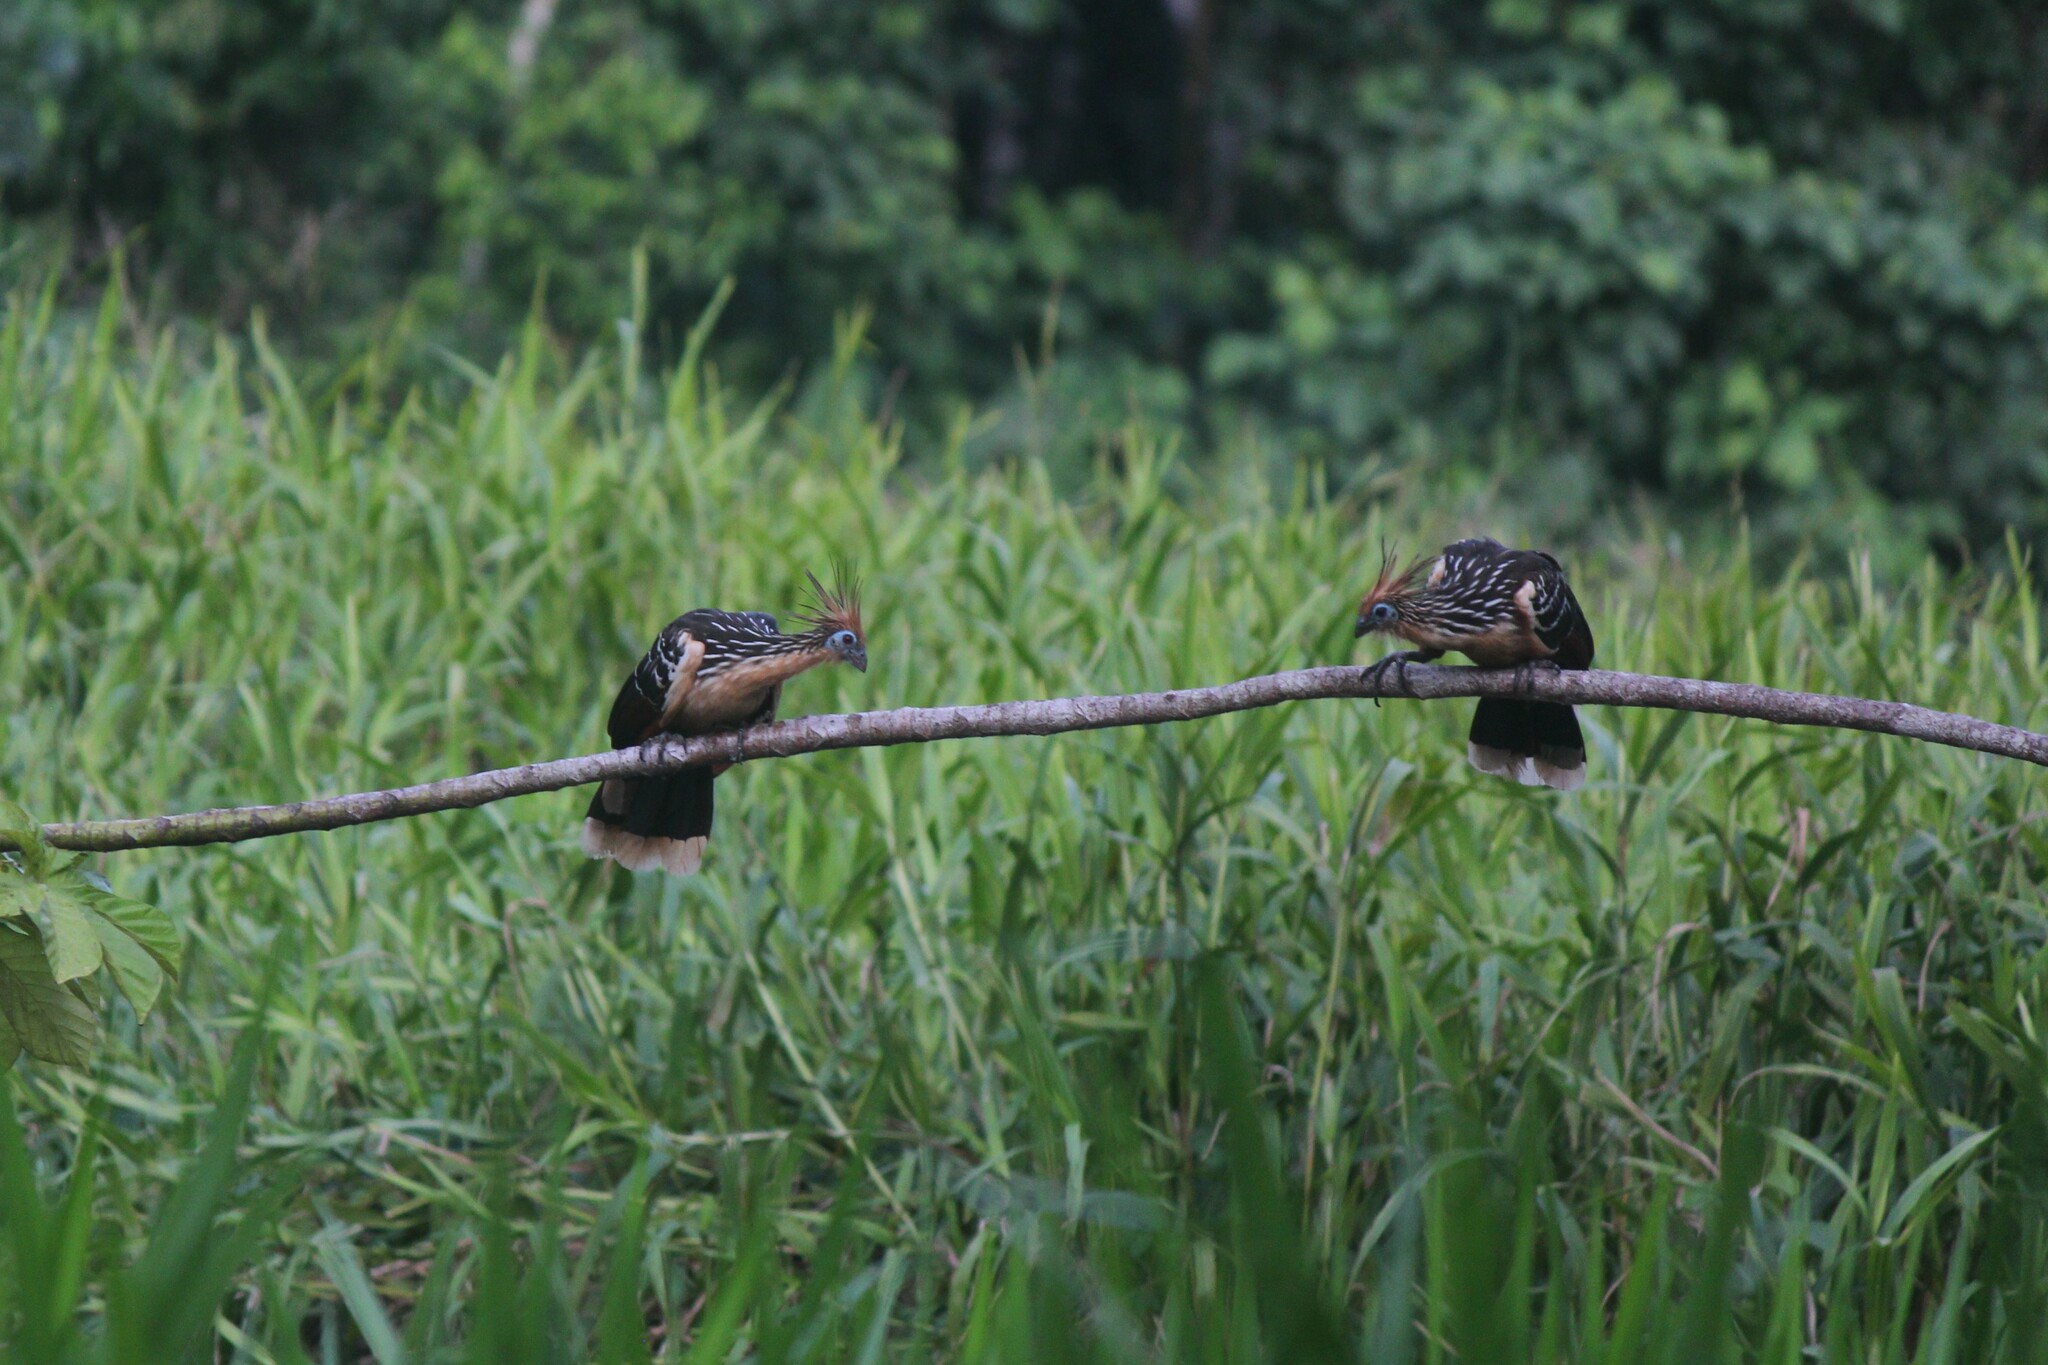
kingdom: Animalia
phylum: Chordata
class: Aves
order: Opisthocomiformes
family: Opisthocomidae
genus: Opisthocomus
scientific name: Opisthocomus hoazin
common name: Hoatzin
